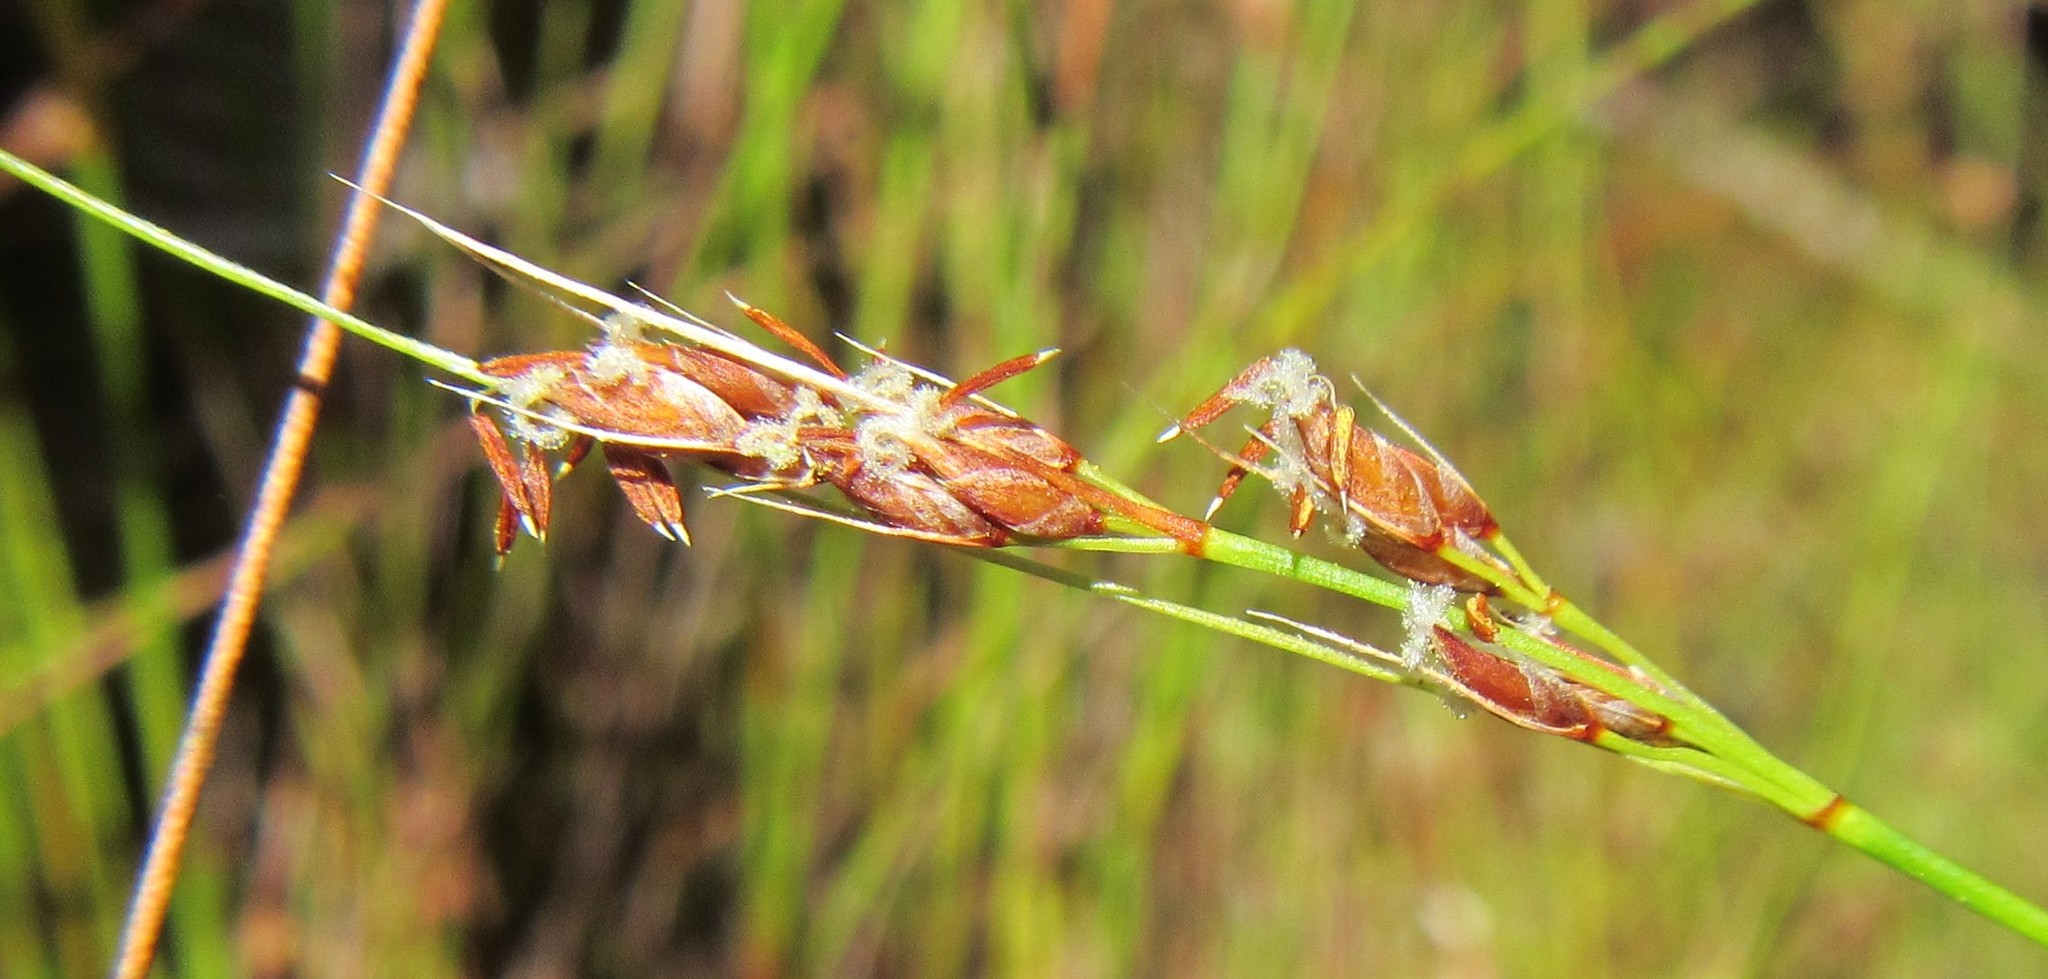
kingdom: Plantae
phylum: Tracheophyta
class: Liliopsida
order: Poales
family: Cyperaceae
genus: Schoenus
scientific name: Schoenus bolusii
